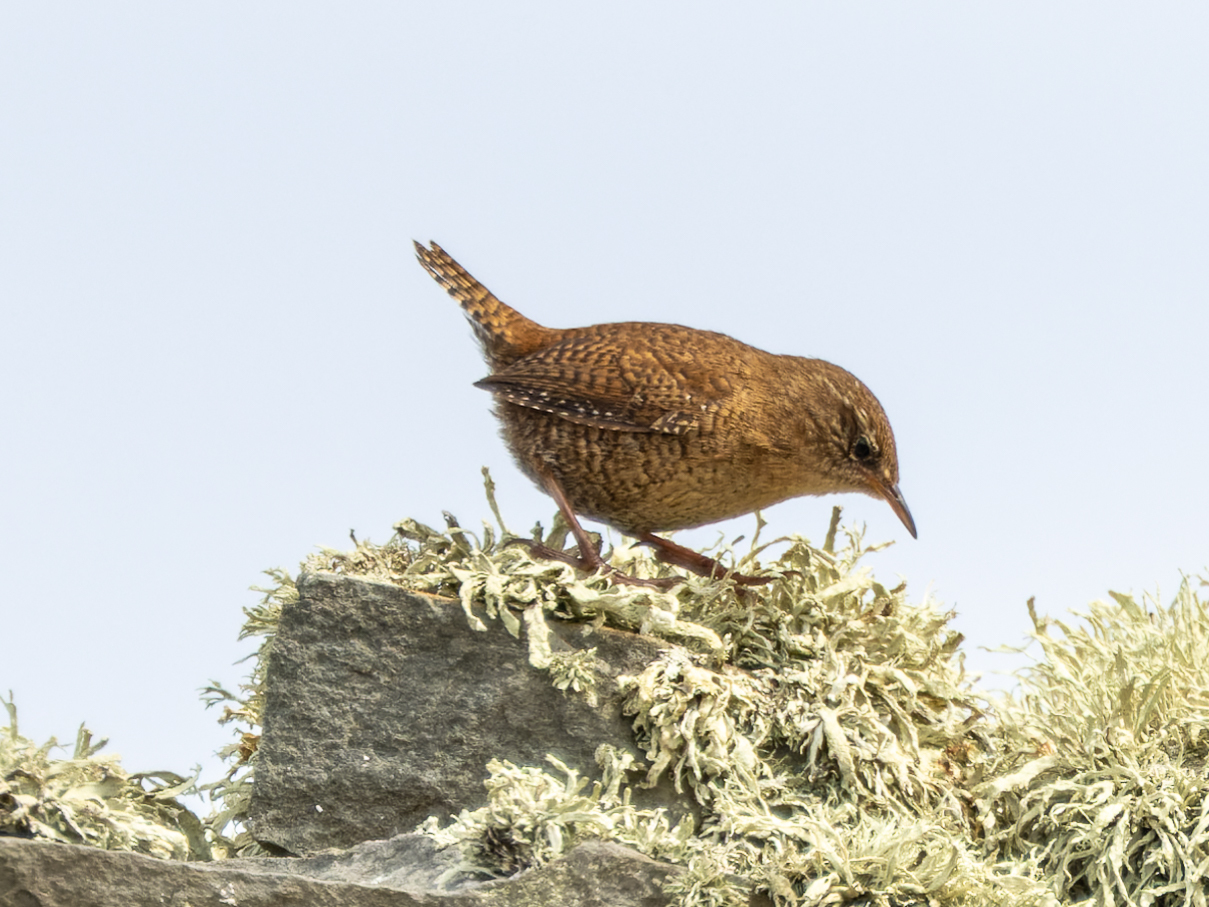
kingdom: Animalia
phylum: Chordata
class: Aves
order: Passeriformes
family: Troglodytidae
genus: Troglodytes
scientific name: Troglodytes troglodytes
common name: Eurasian wren
